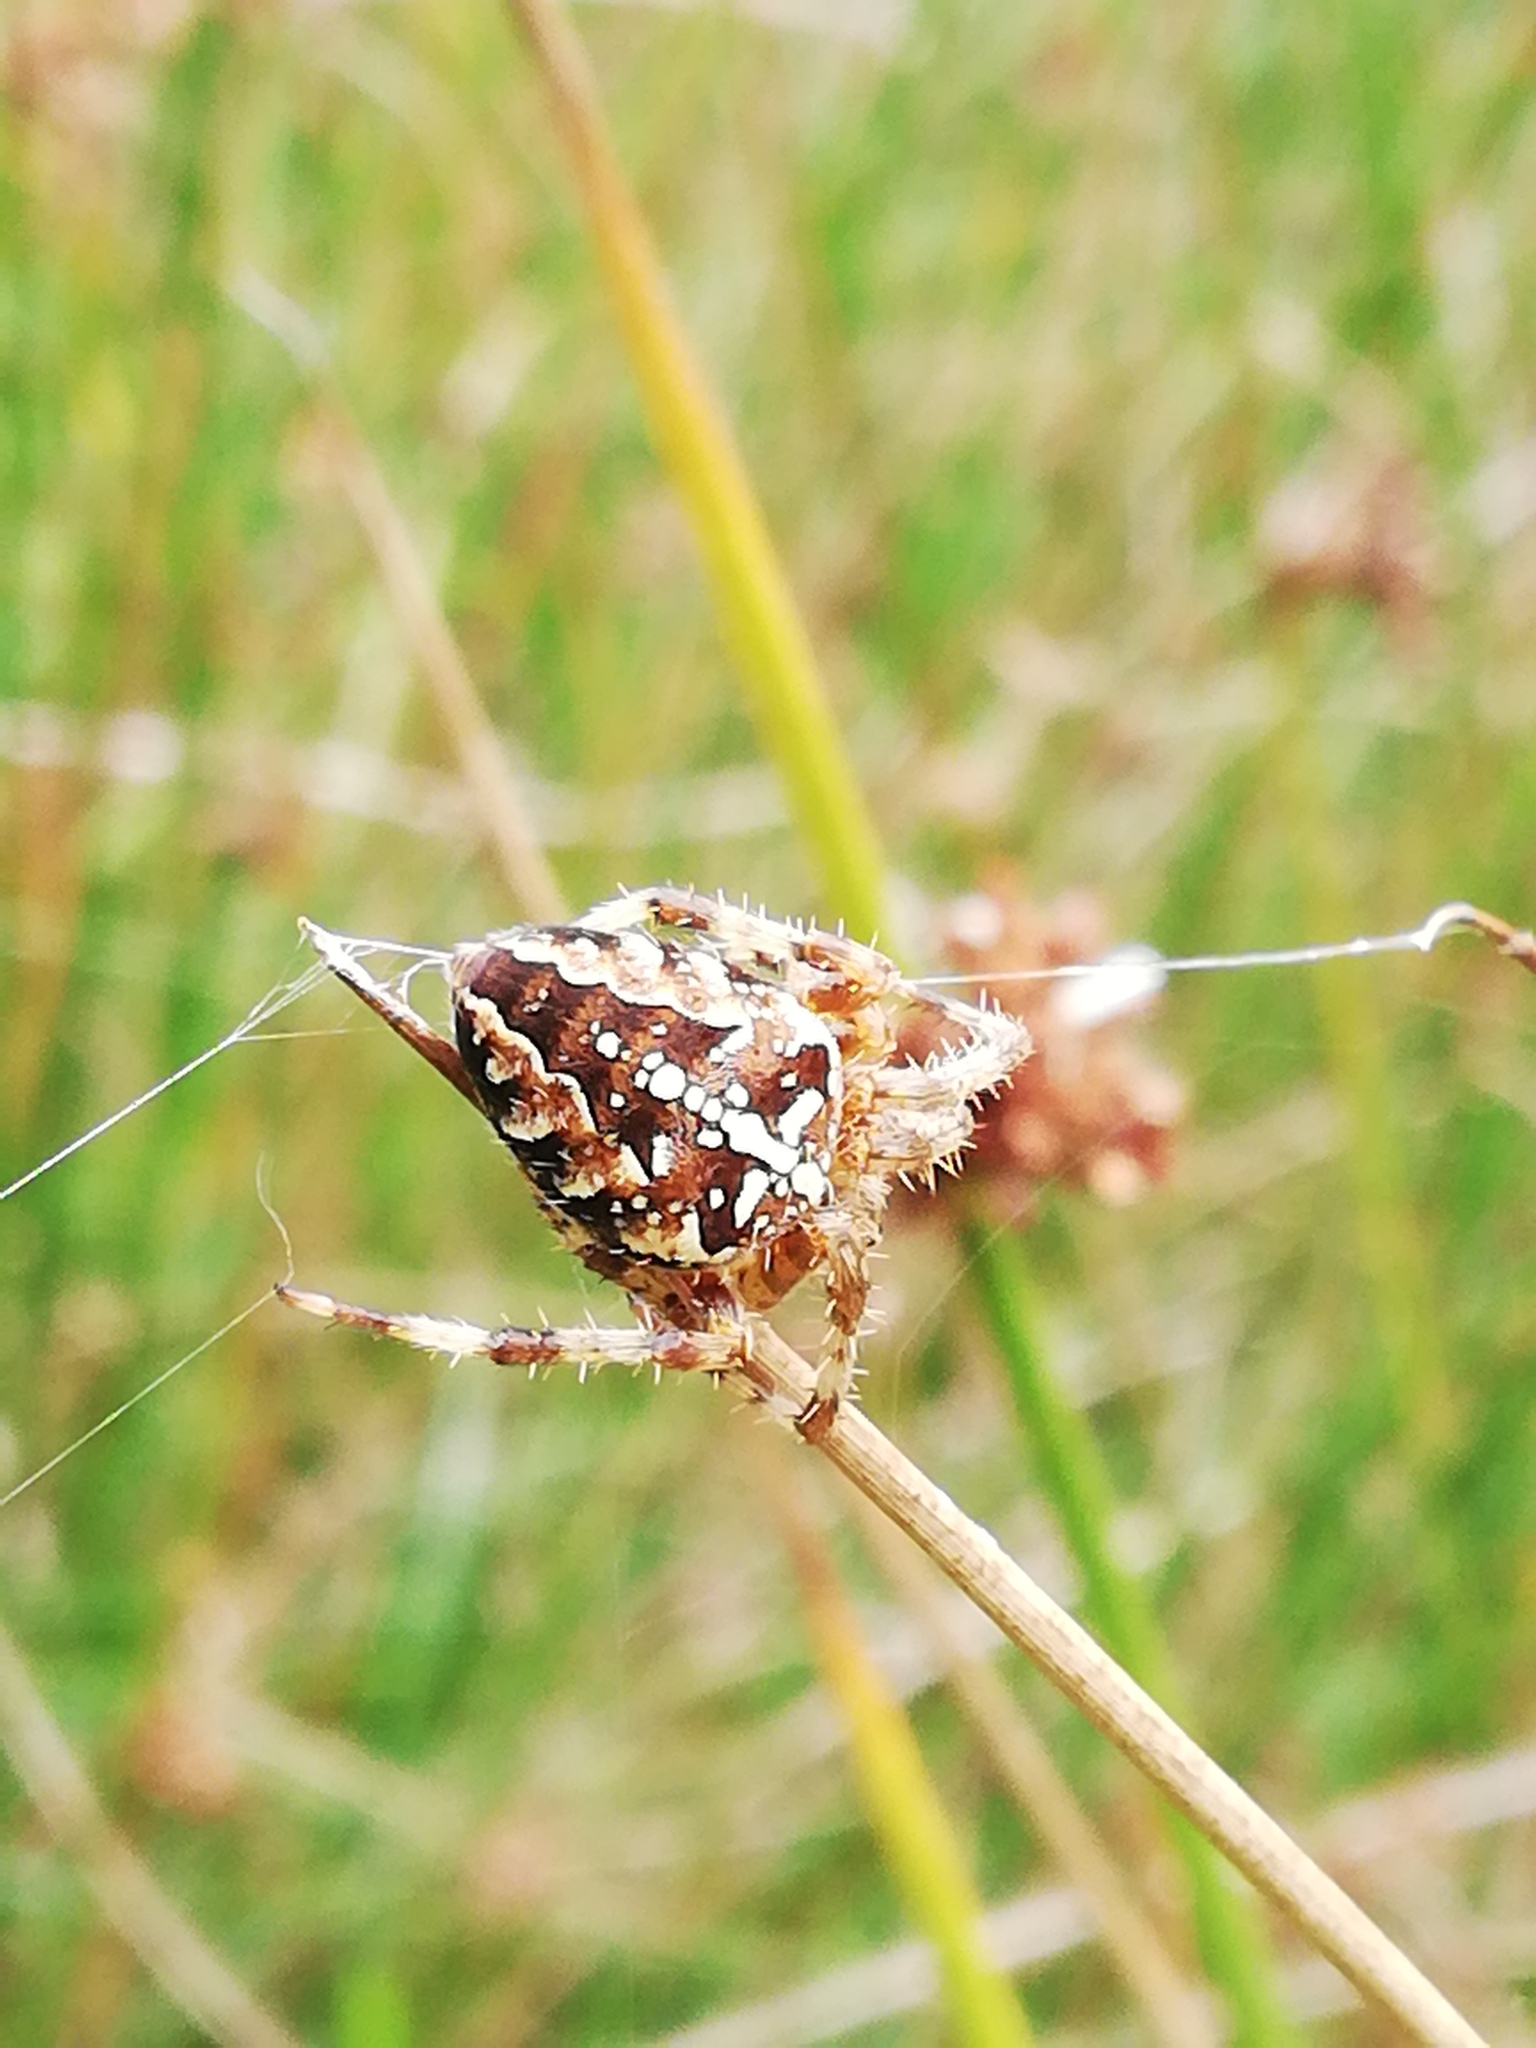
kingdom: Animalia
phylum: Arthropoda
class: Arachnida
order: Araneae
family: Araneidae
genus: Araneus
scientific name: Araneus diadematus
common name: Cross orbweaver
